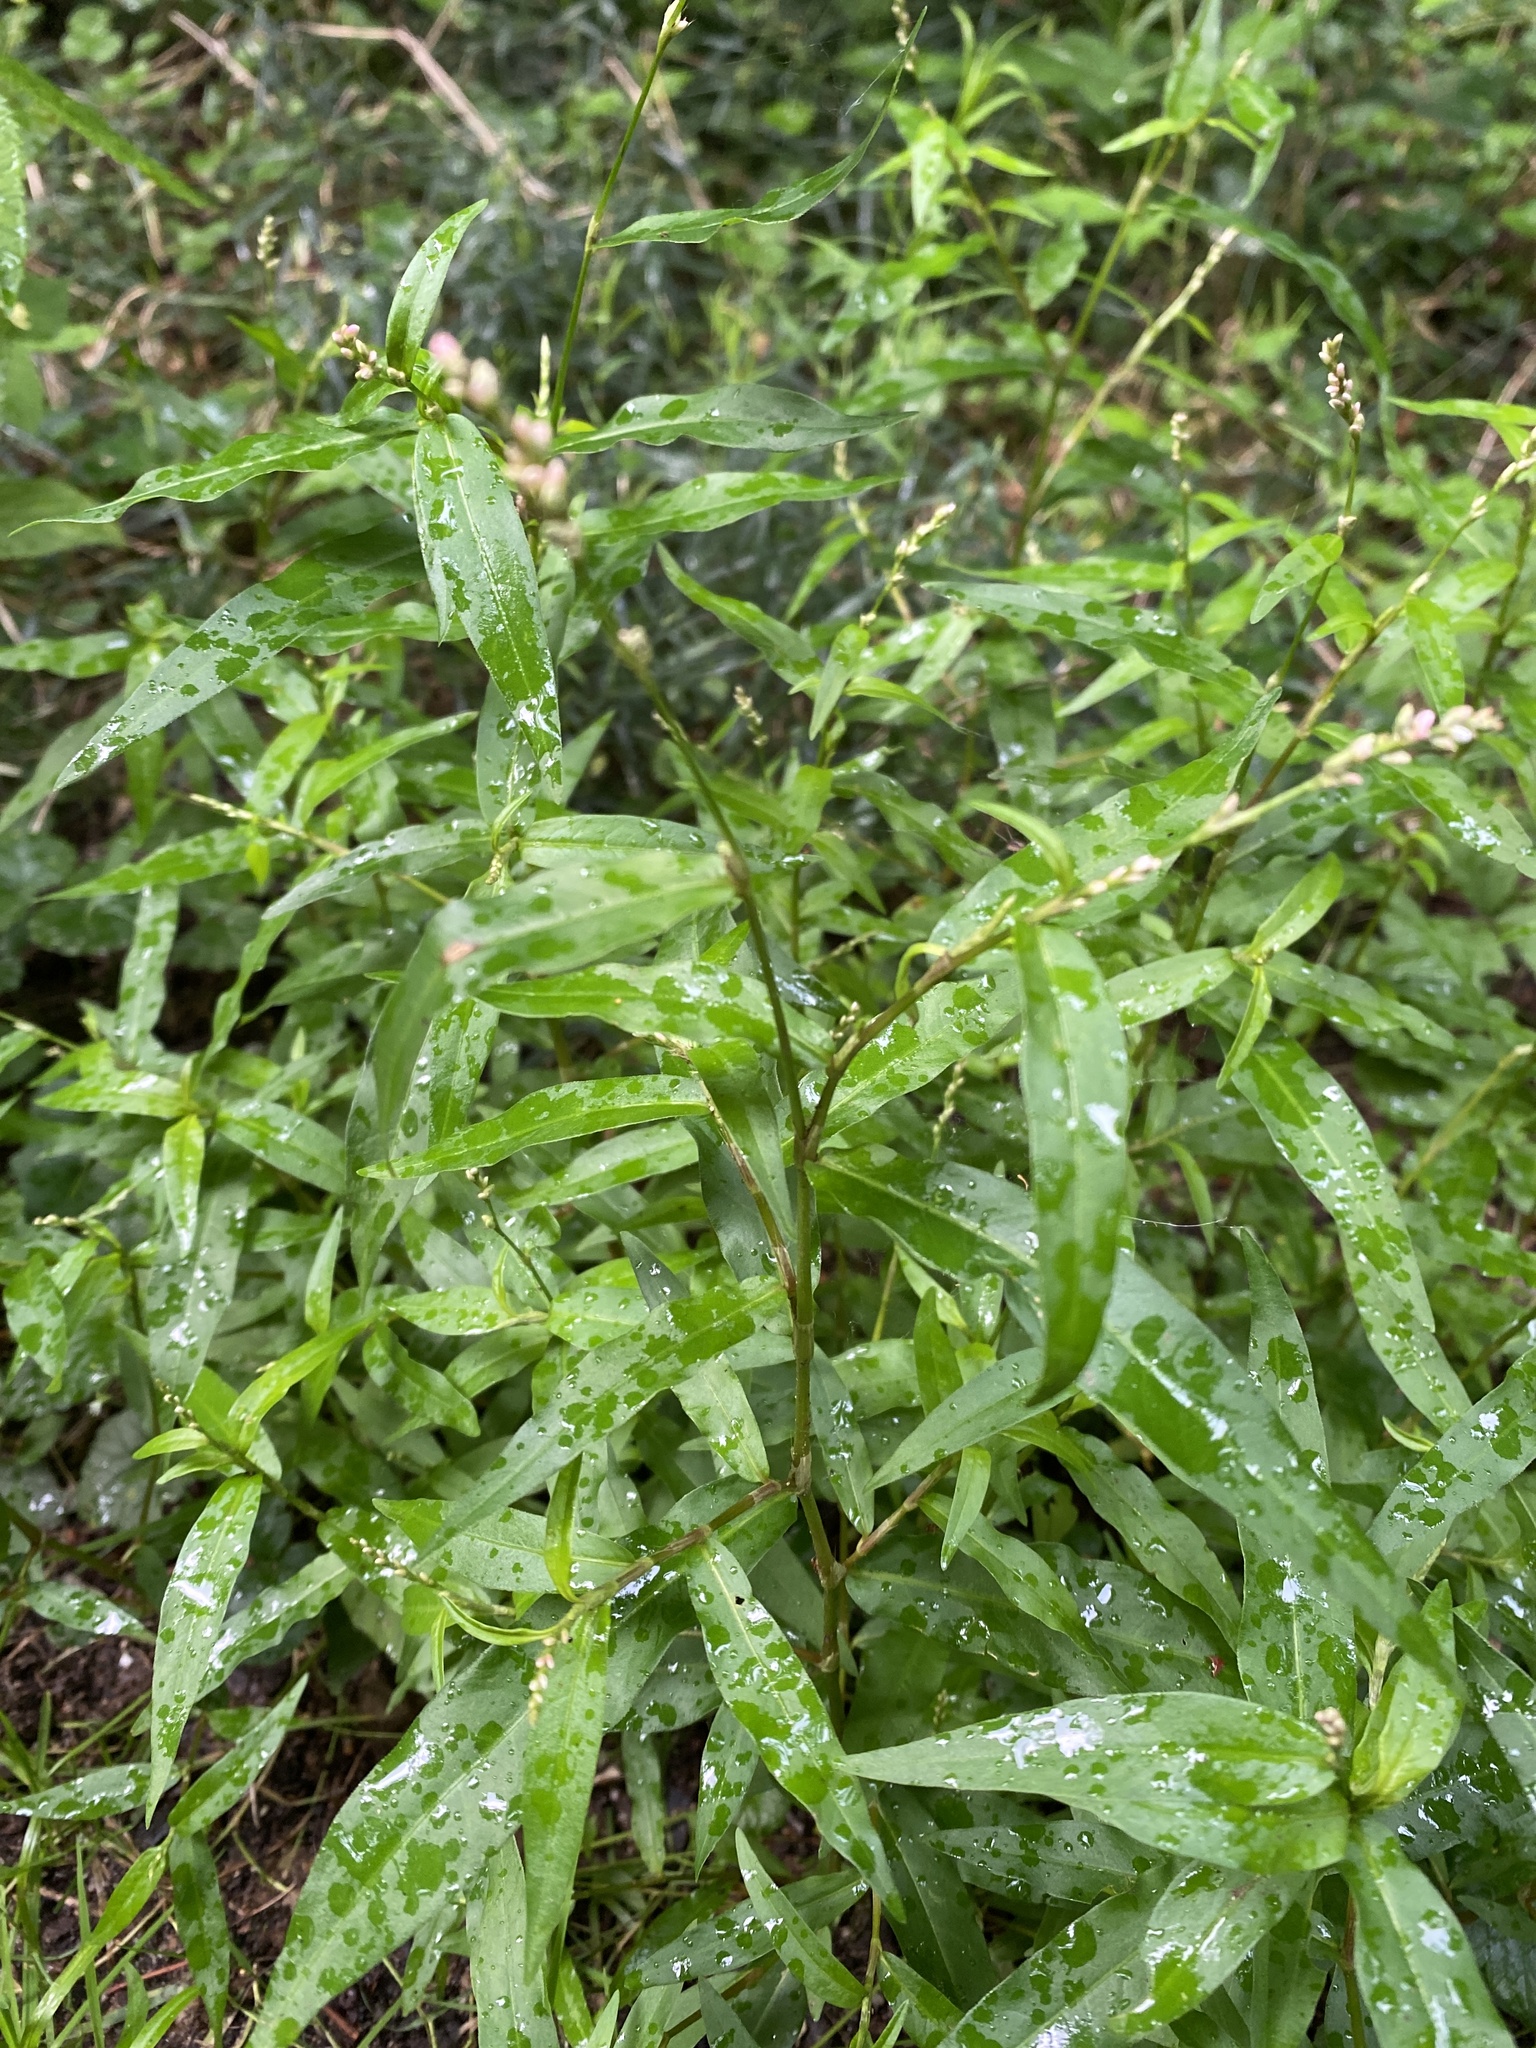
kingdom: Plantae
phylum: Tracheophyta
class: Magnoliopsida
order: Caryophyllales
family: Polygonaceae
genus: Persicaria
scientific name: Persicaria hydropiper
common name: Water-pepper
